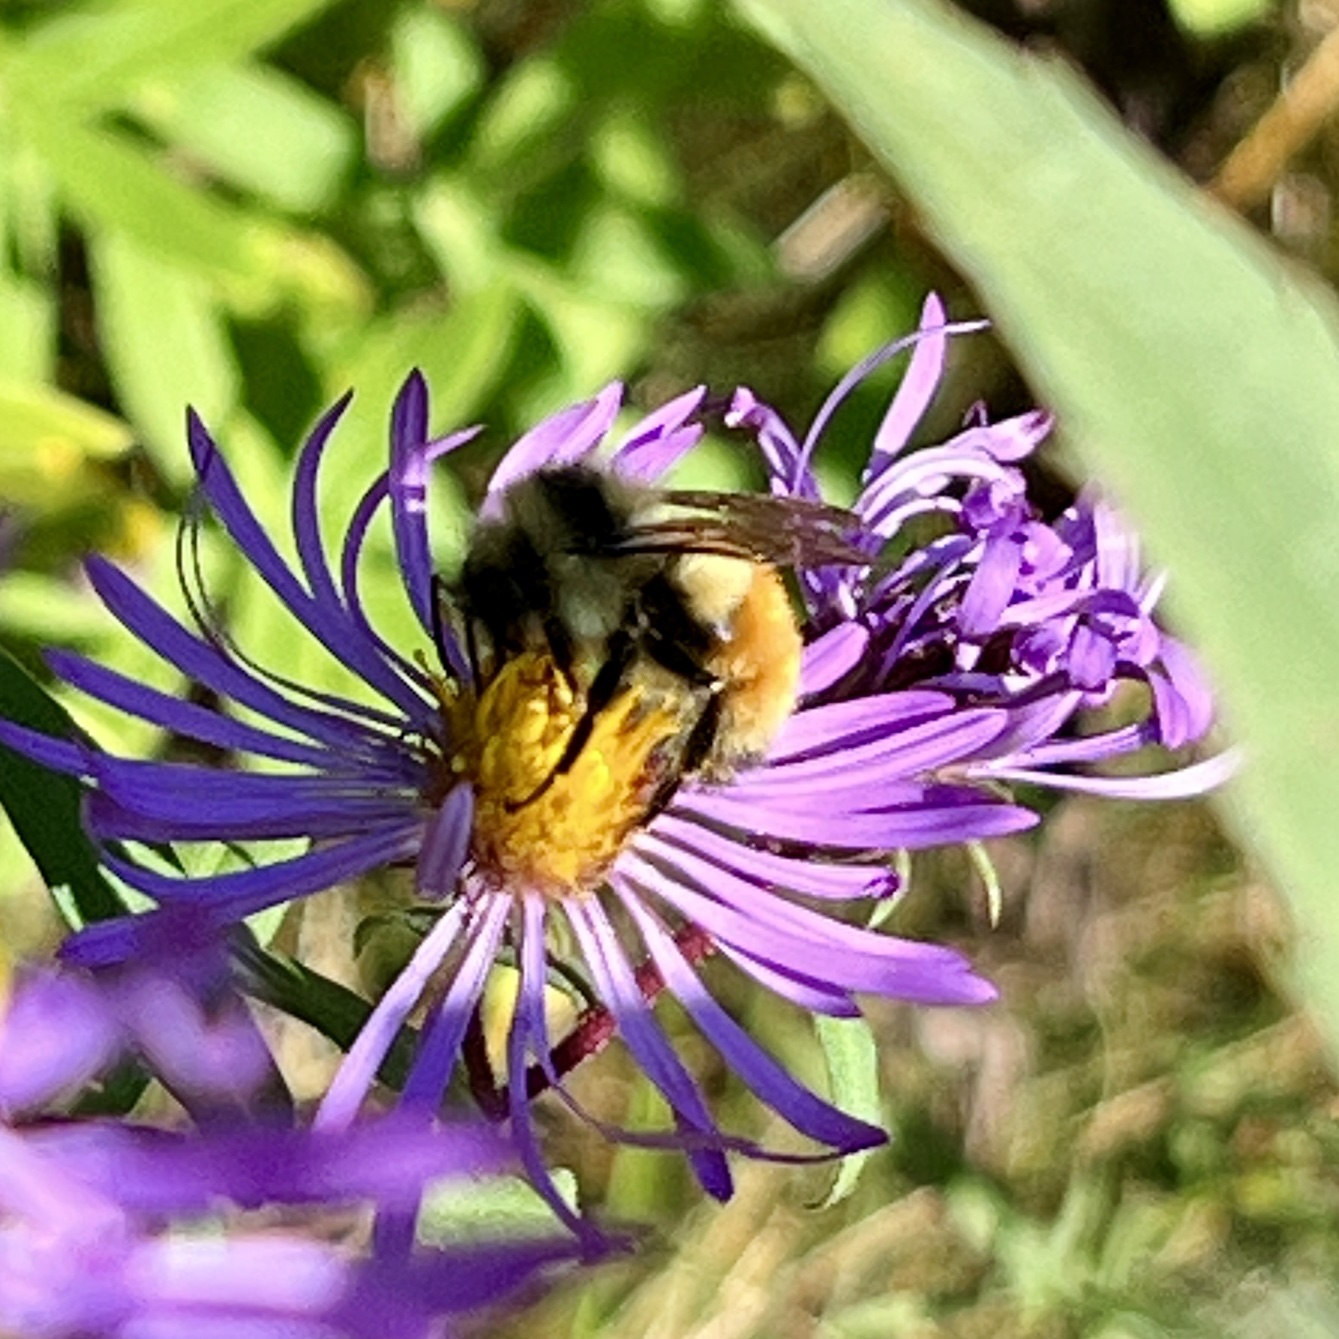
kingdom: Animalia
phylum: Arthropoda
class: Insecta
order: Hymenoptera
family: Apidae
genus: Bombus
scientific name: Bombus ternarius
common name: Tri-colored bumble bee
